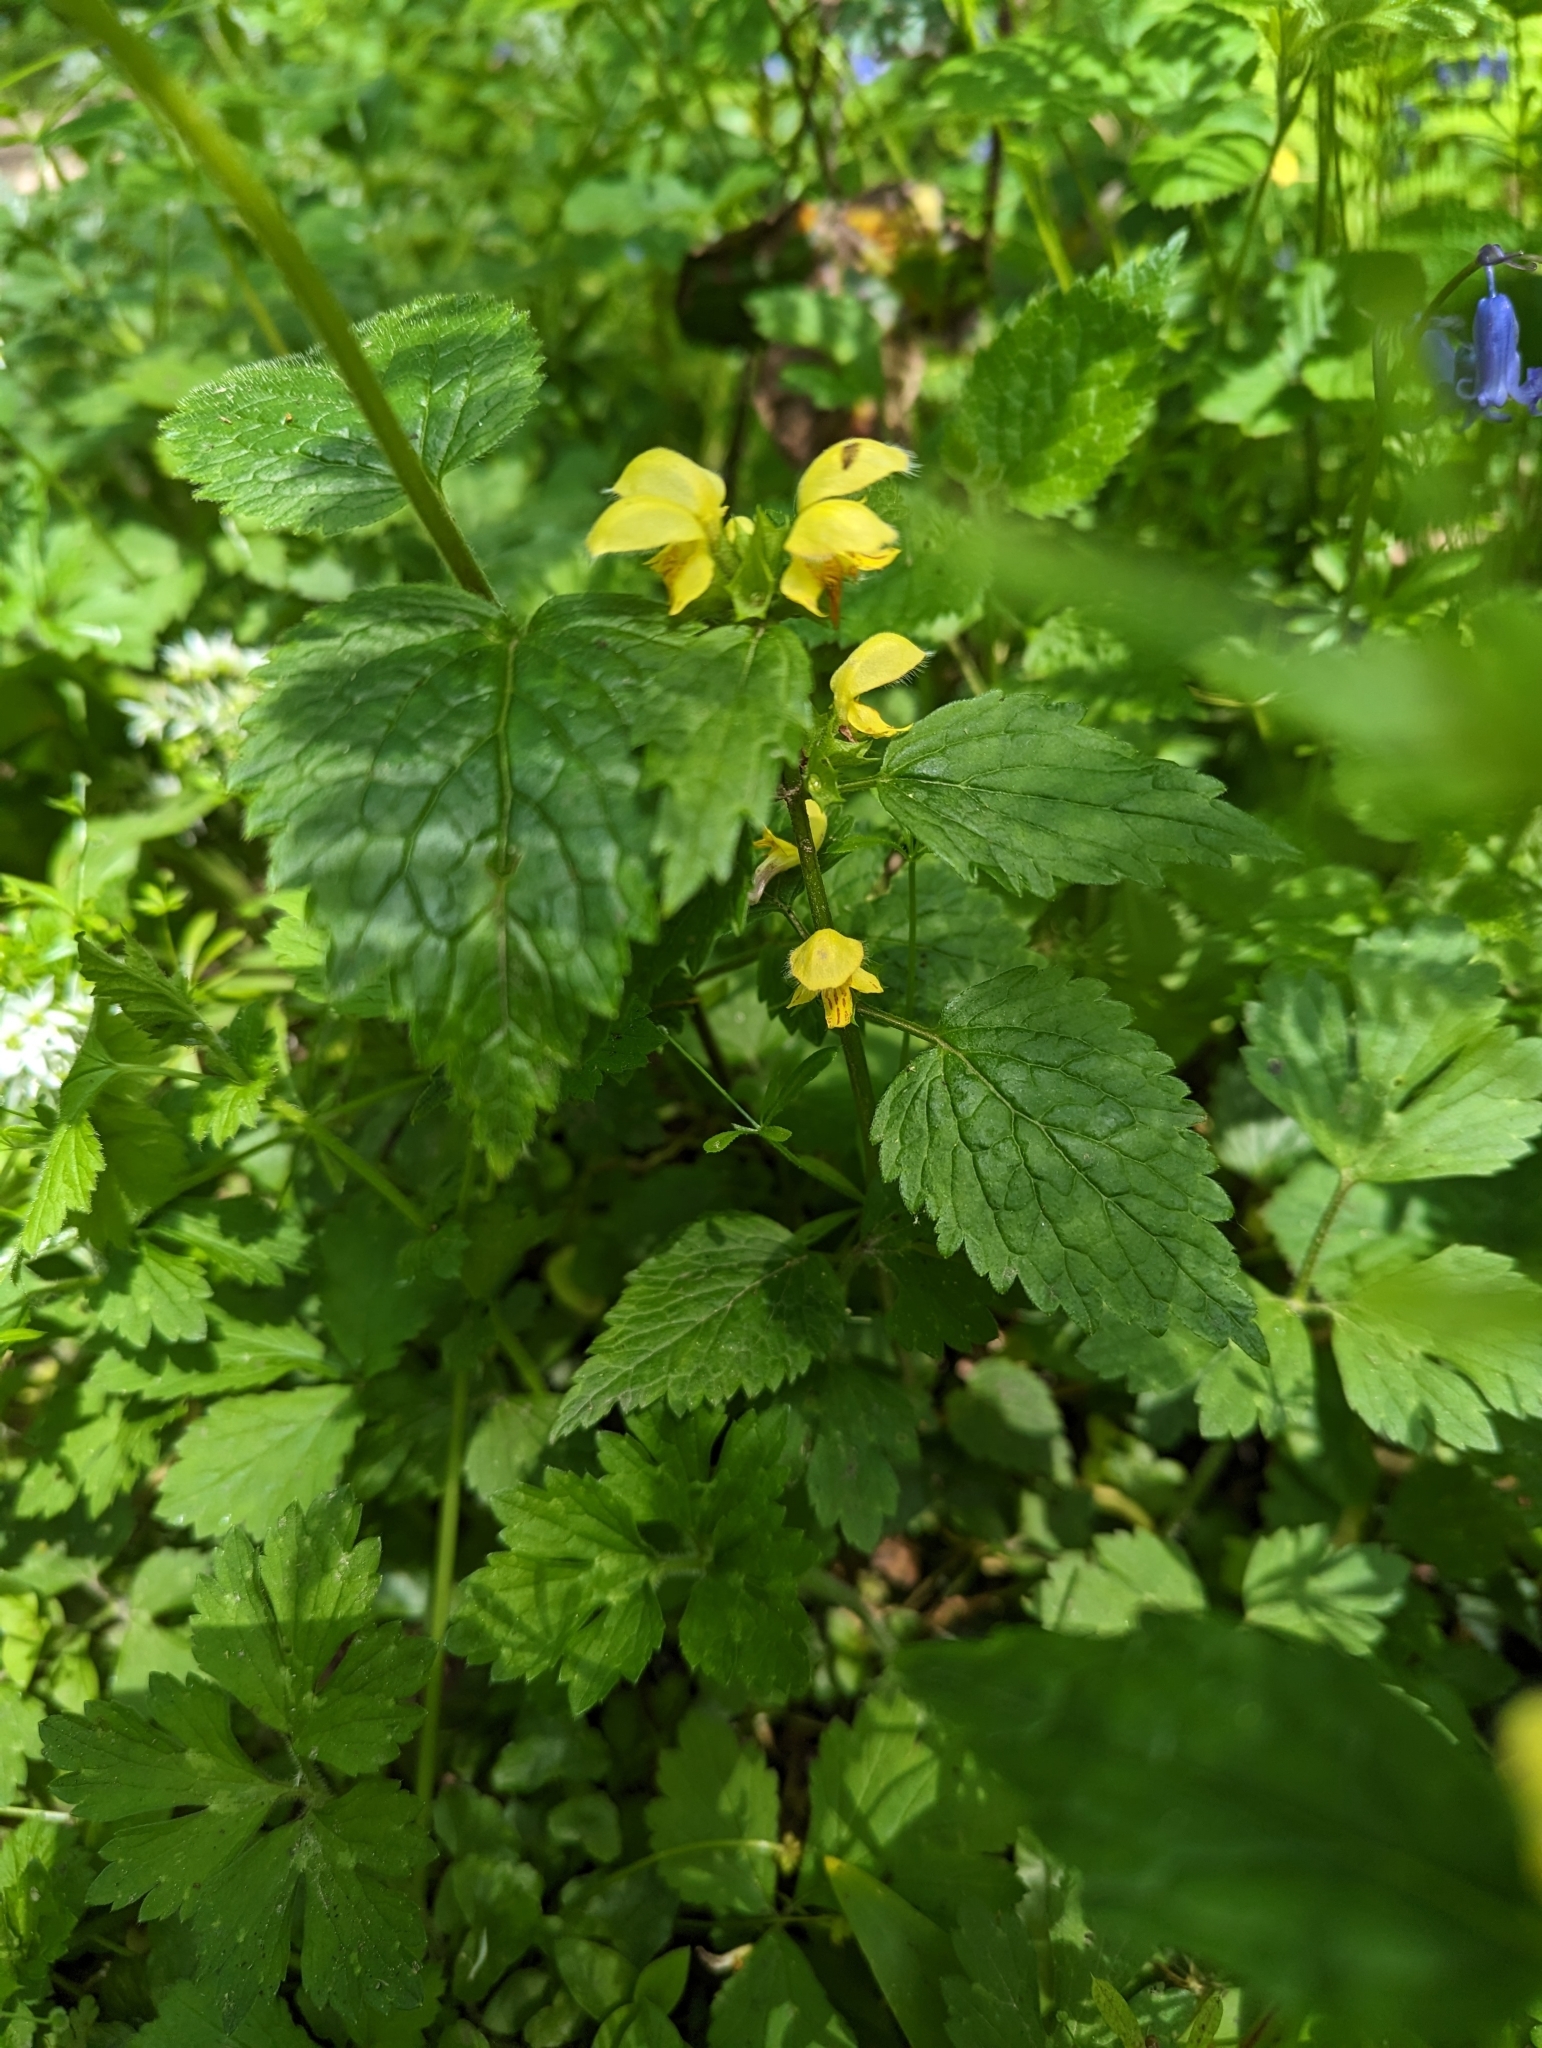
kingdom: Plantae
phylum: Tracheophyta
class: Magnoliopsida
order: Lamiales
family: Lamiaceae
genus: Lamium
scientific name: Lamium galeobdolon
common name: Yellow archangel
